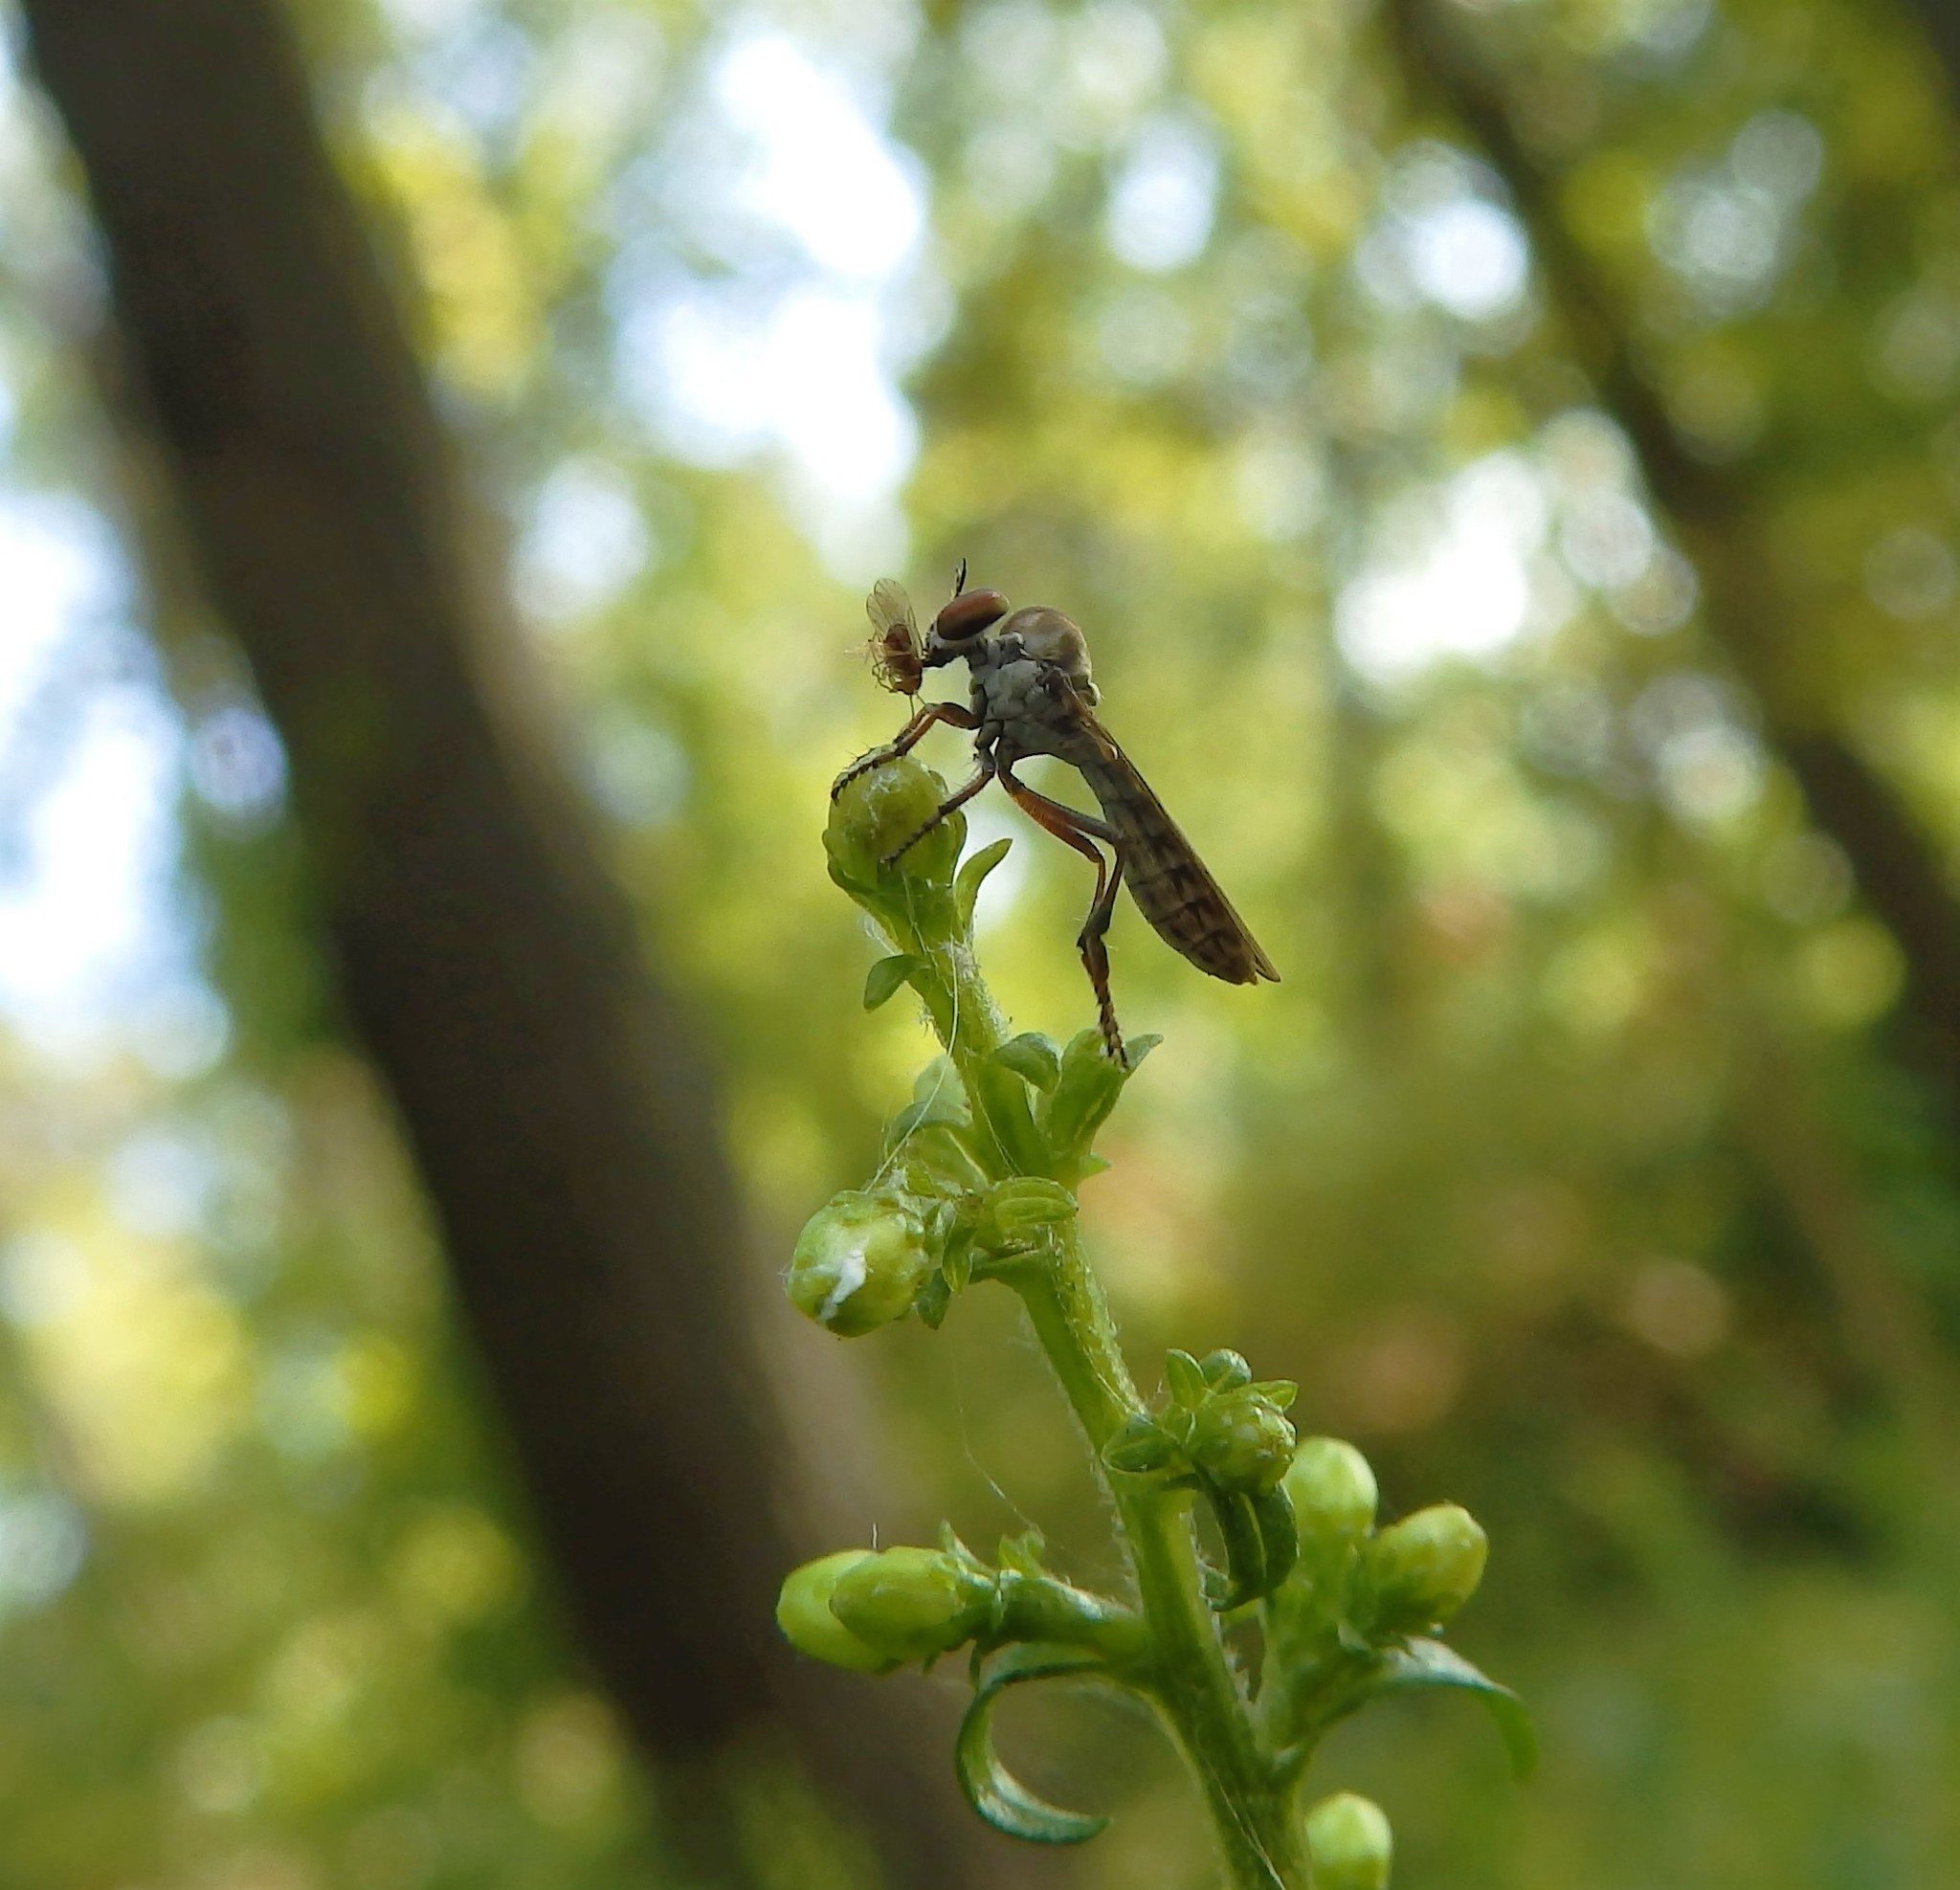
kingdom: Animalia
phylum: Arthropoda
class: Insecta
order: Diptera
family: Asilidae
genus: Holcocephala
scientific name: Holcocephala calva
